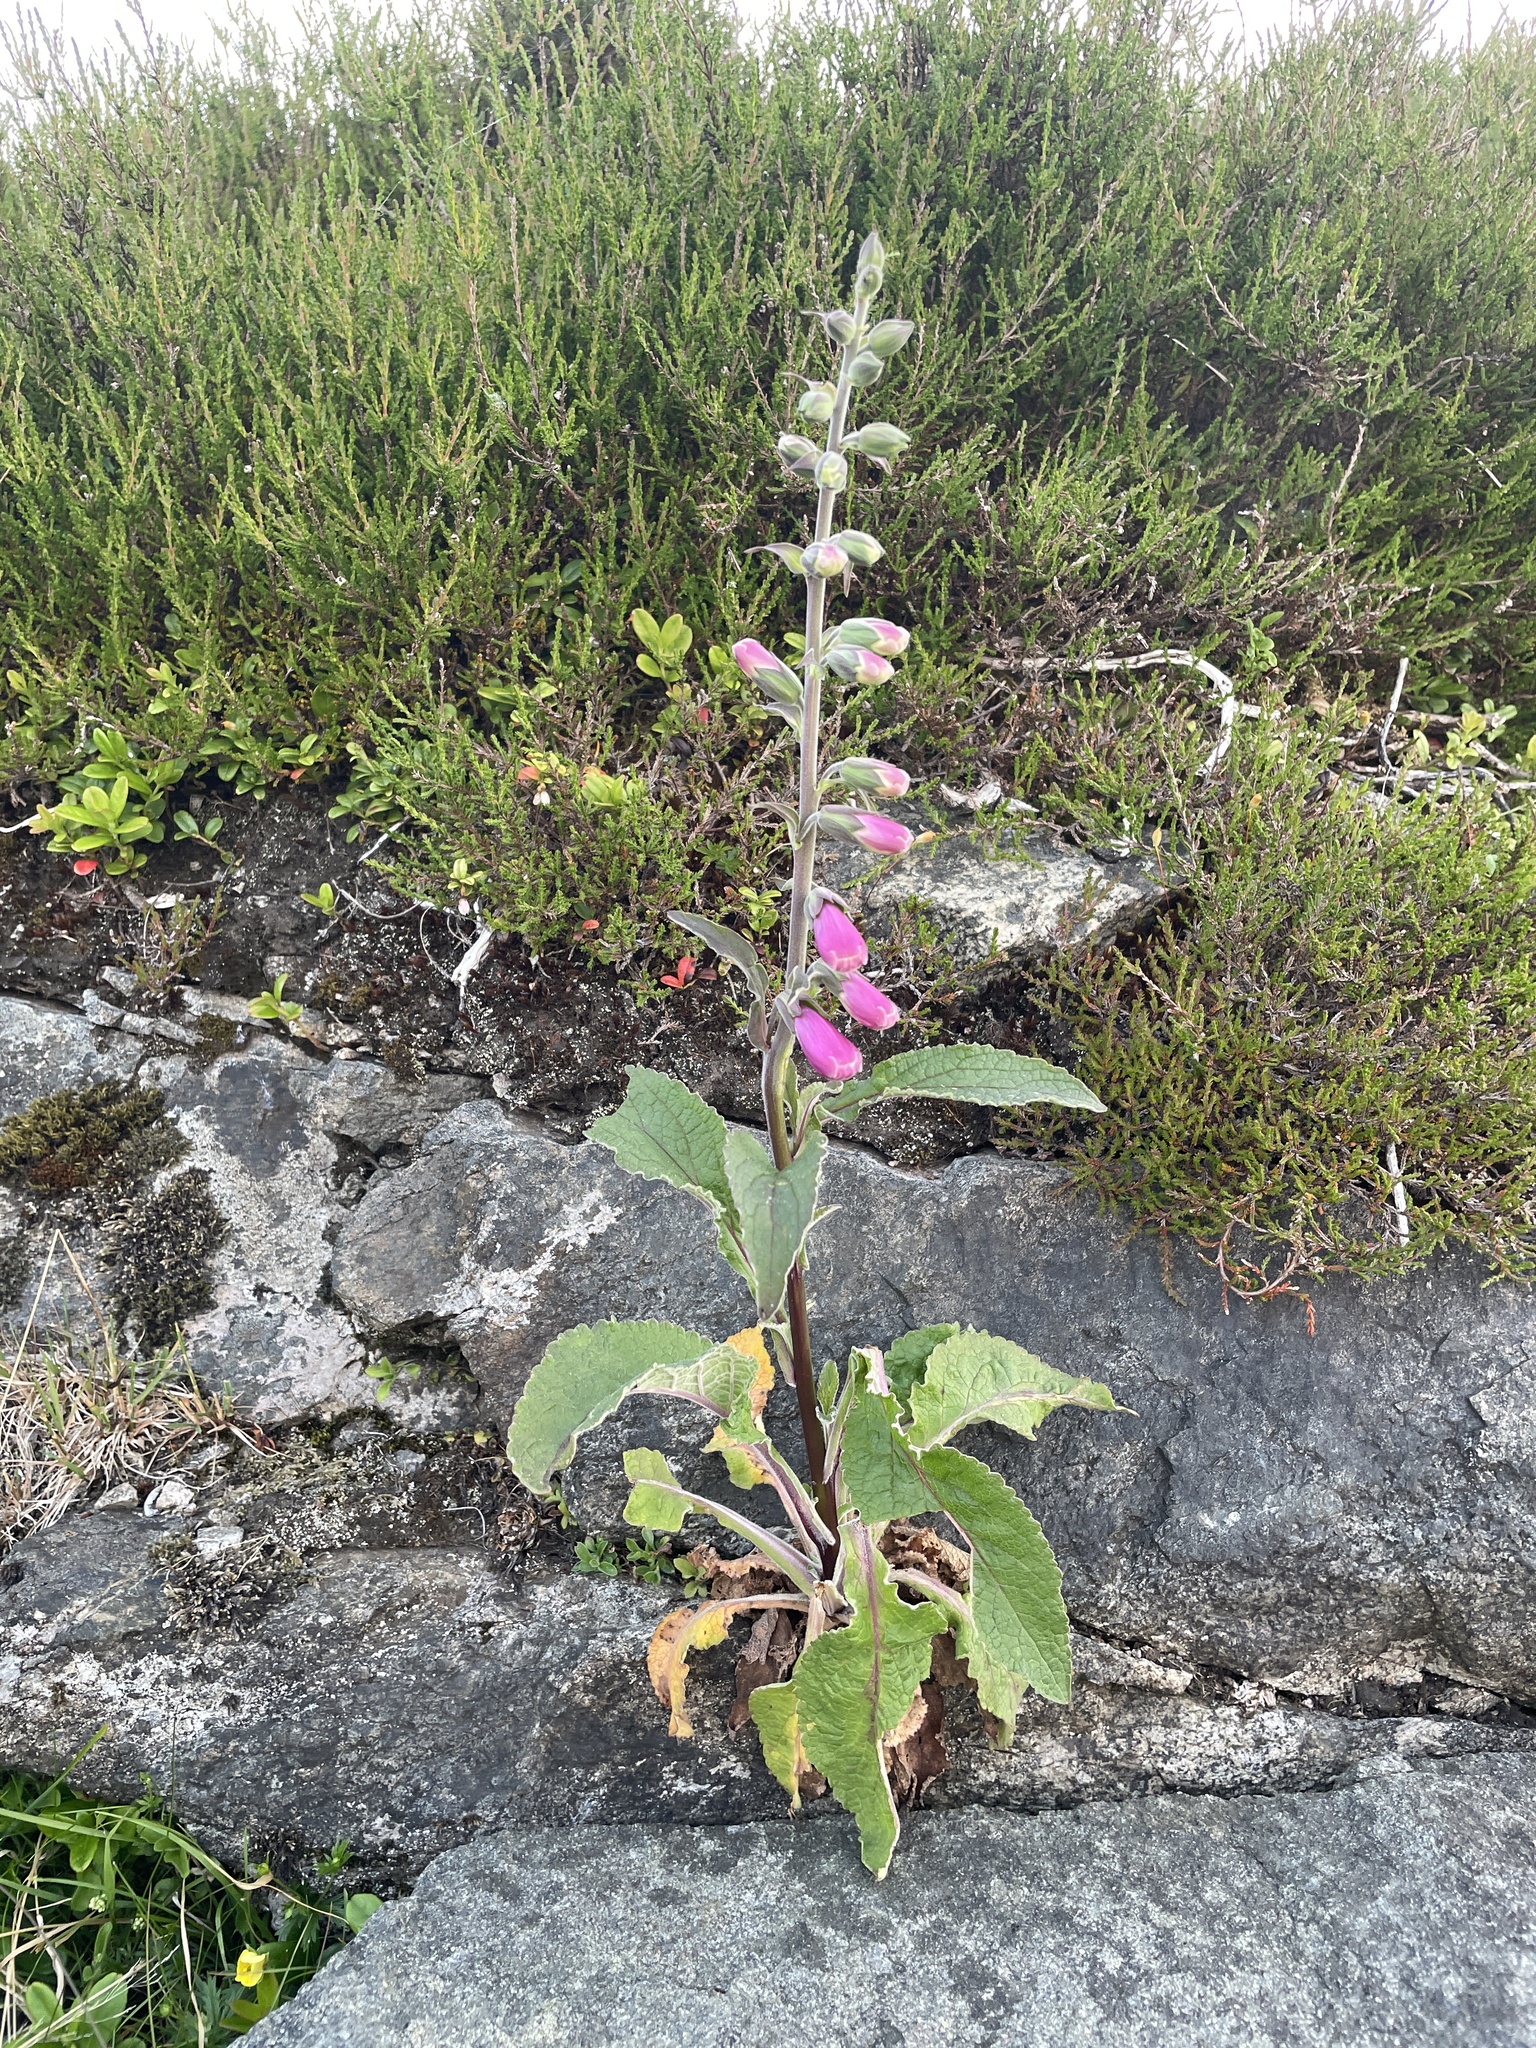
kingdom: Plantae
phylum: Tracheophyta
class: Magnoliopsida
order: Lamiales
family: Plantaginaceae
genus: Digitalis
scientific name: Digitalis purpurea
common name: Foxglove
